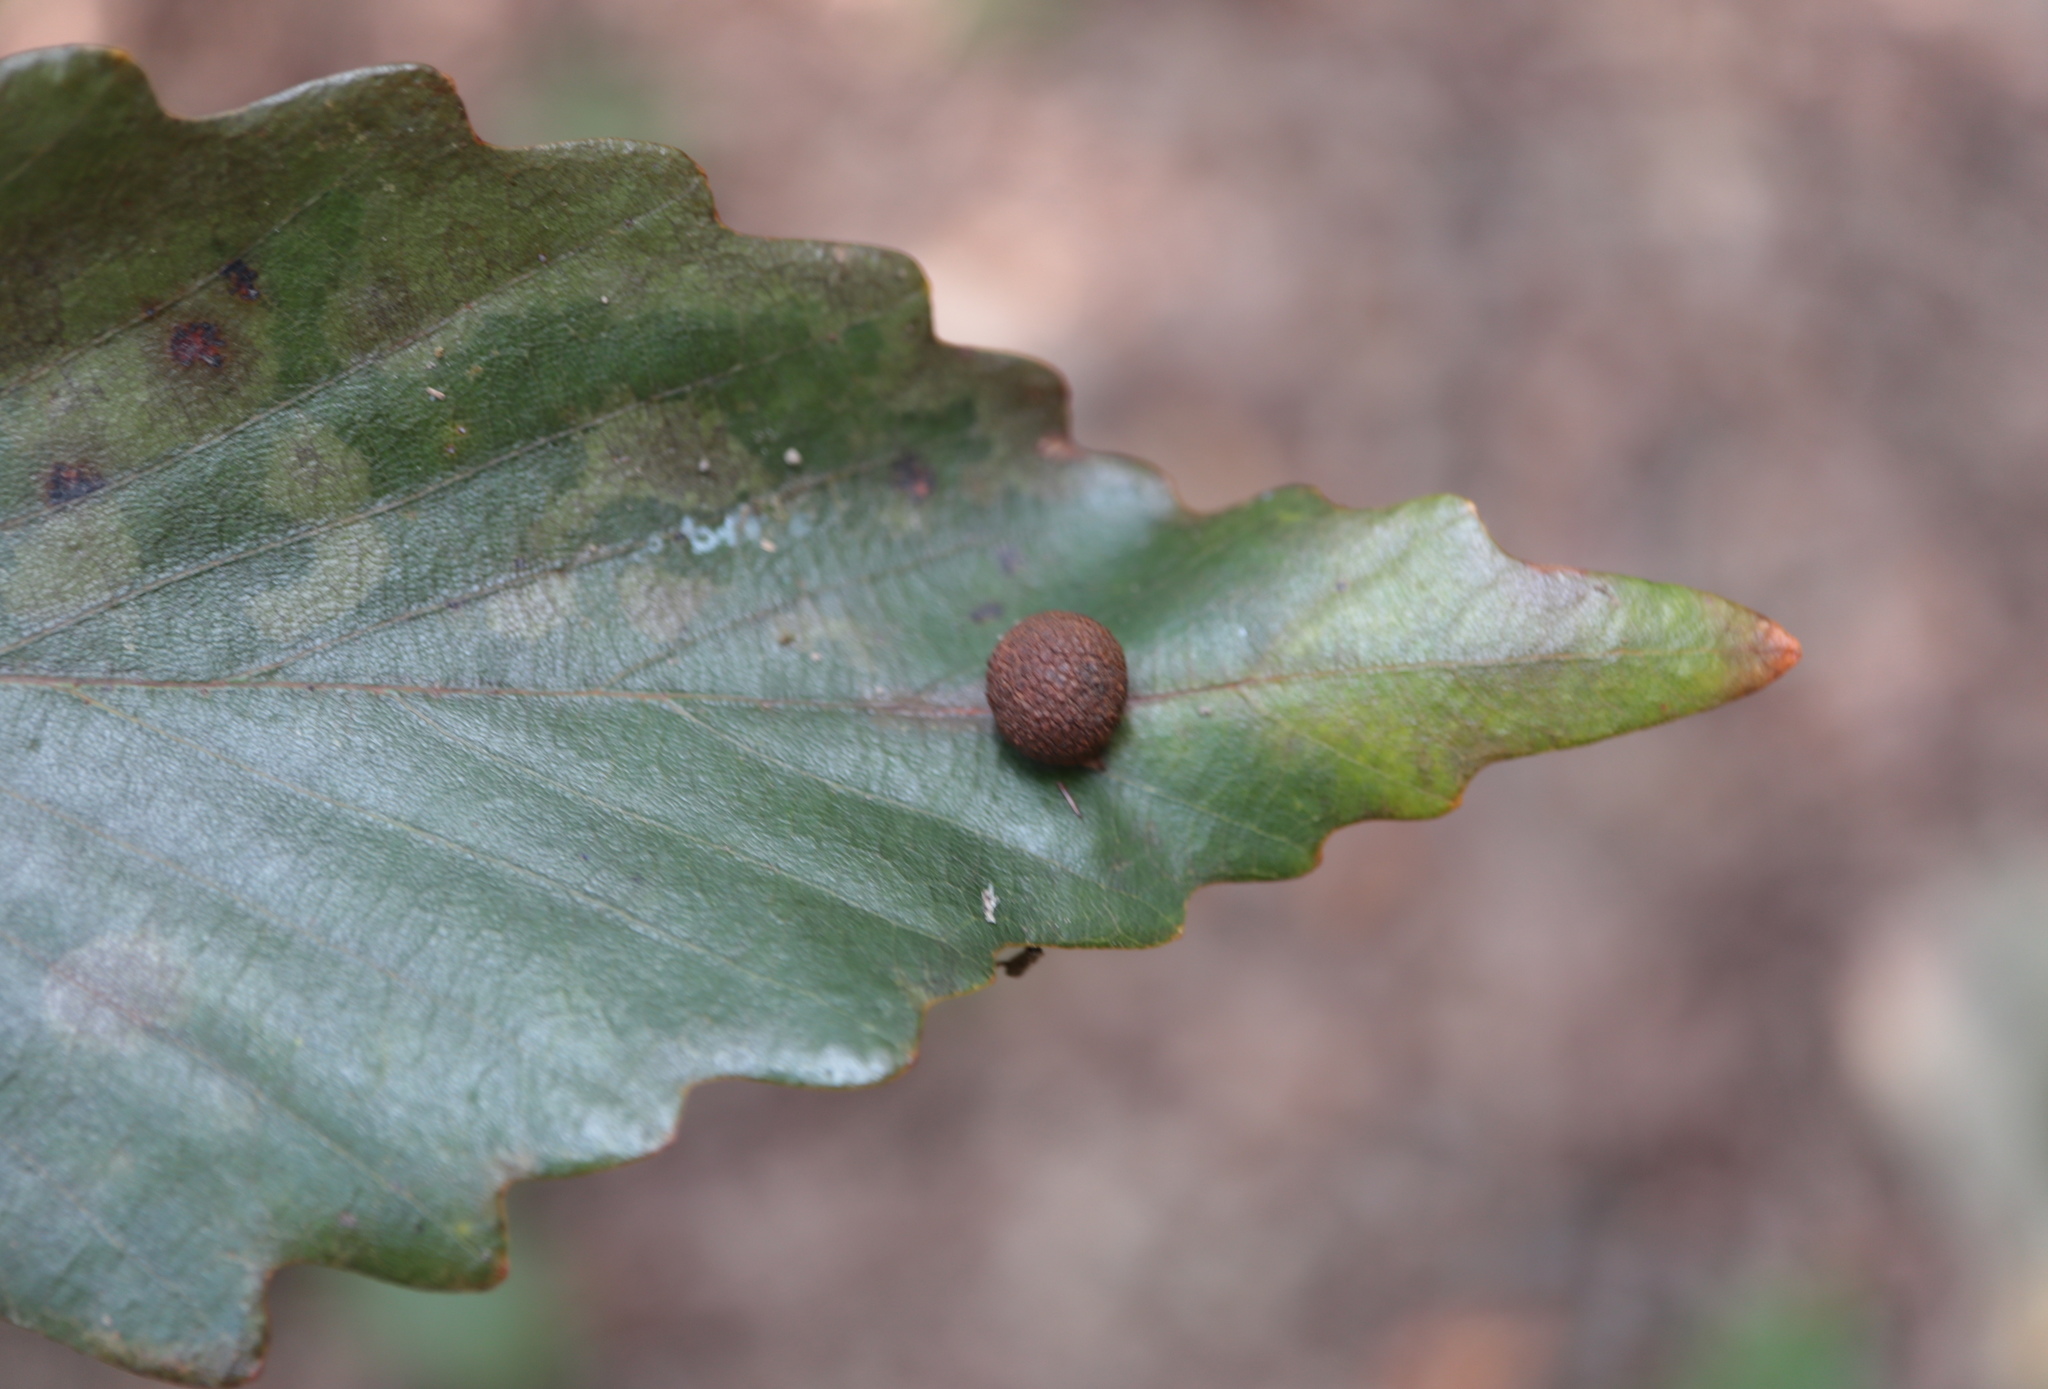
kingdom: Animalia
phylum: Arthropoda
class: Insecta
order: Hymenoptera
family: Cynipidae
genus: Acraspis
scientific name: Acraspis quercushirta
